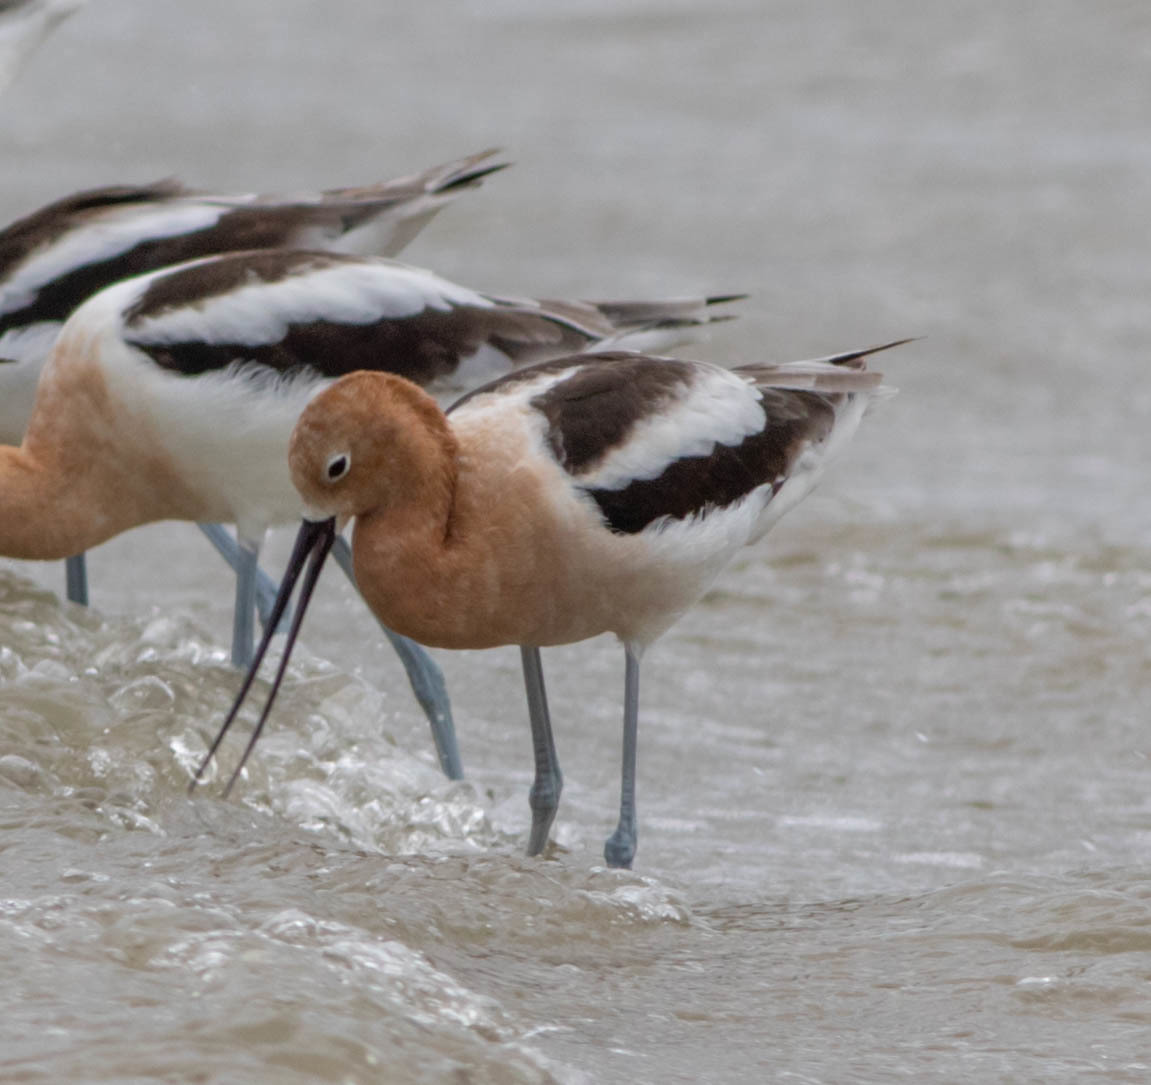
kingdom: Animalia
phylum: Chordata
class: Aves
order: Charadriiformes
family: Recurvirostridae
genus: Recurvirostra
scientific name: Recurvirostra americana
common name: American avocet
